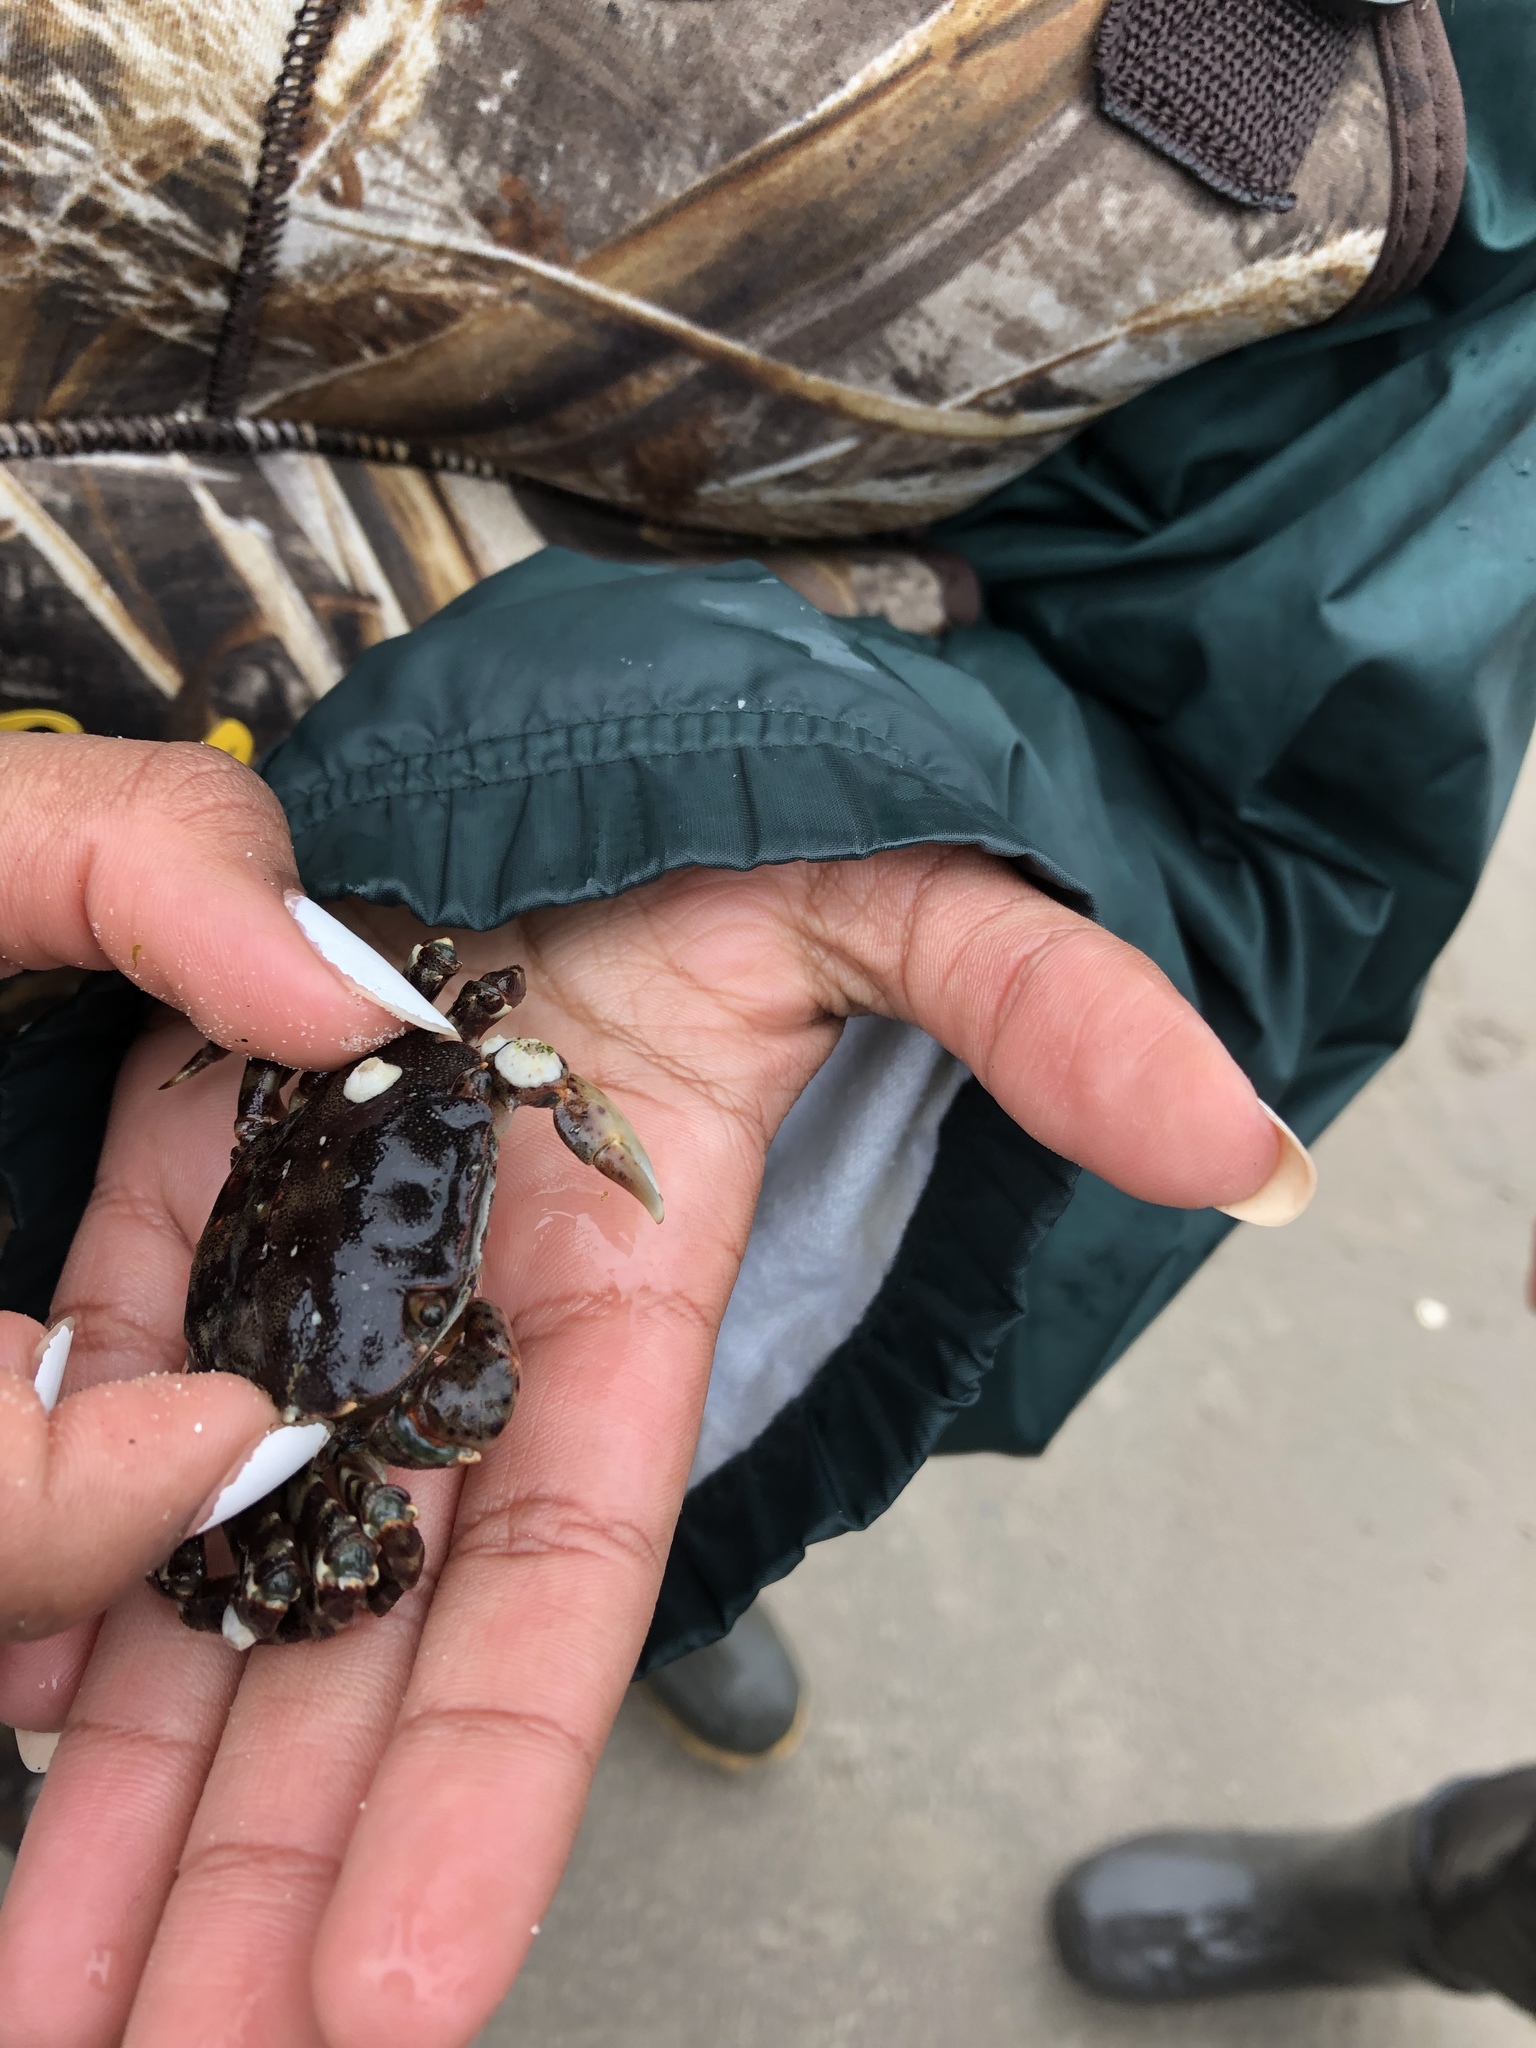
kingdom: Animalia
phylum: Arthropoda
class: Malacostraca
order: Decapoda
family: Varunidae
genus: Hemigrapsus
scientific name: Hemigrapsus sanguineus
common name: Asian shore crab
